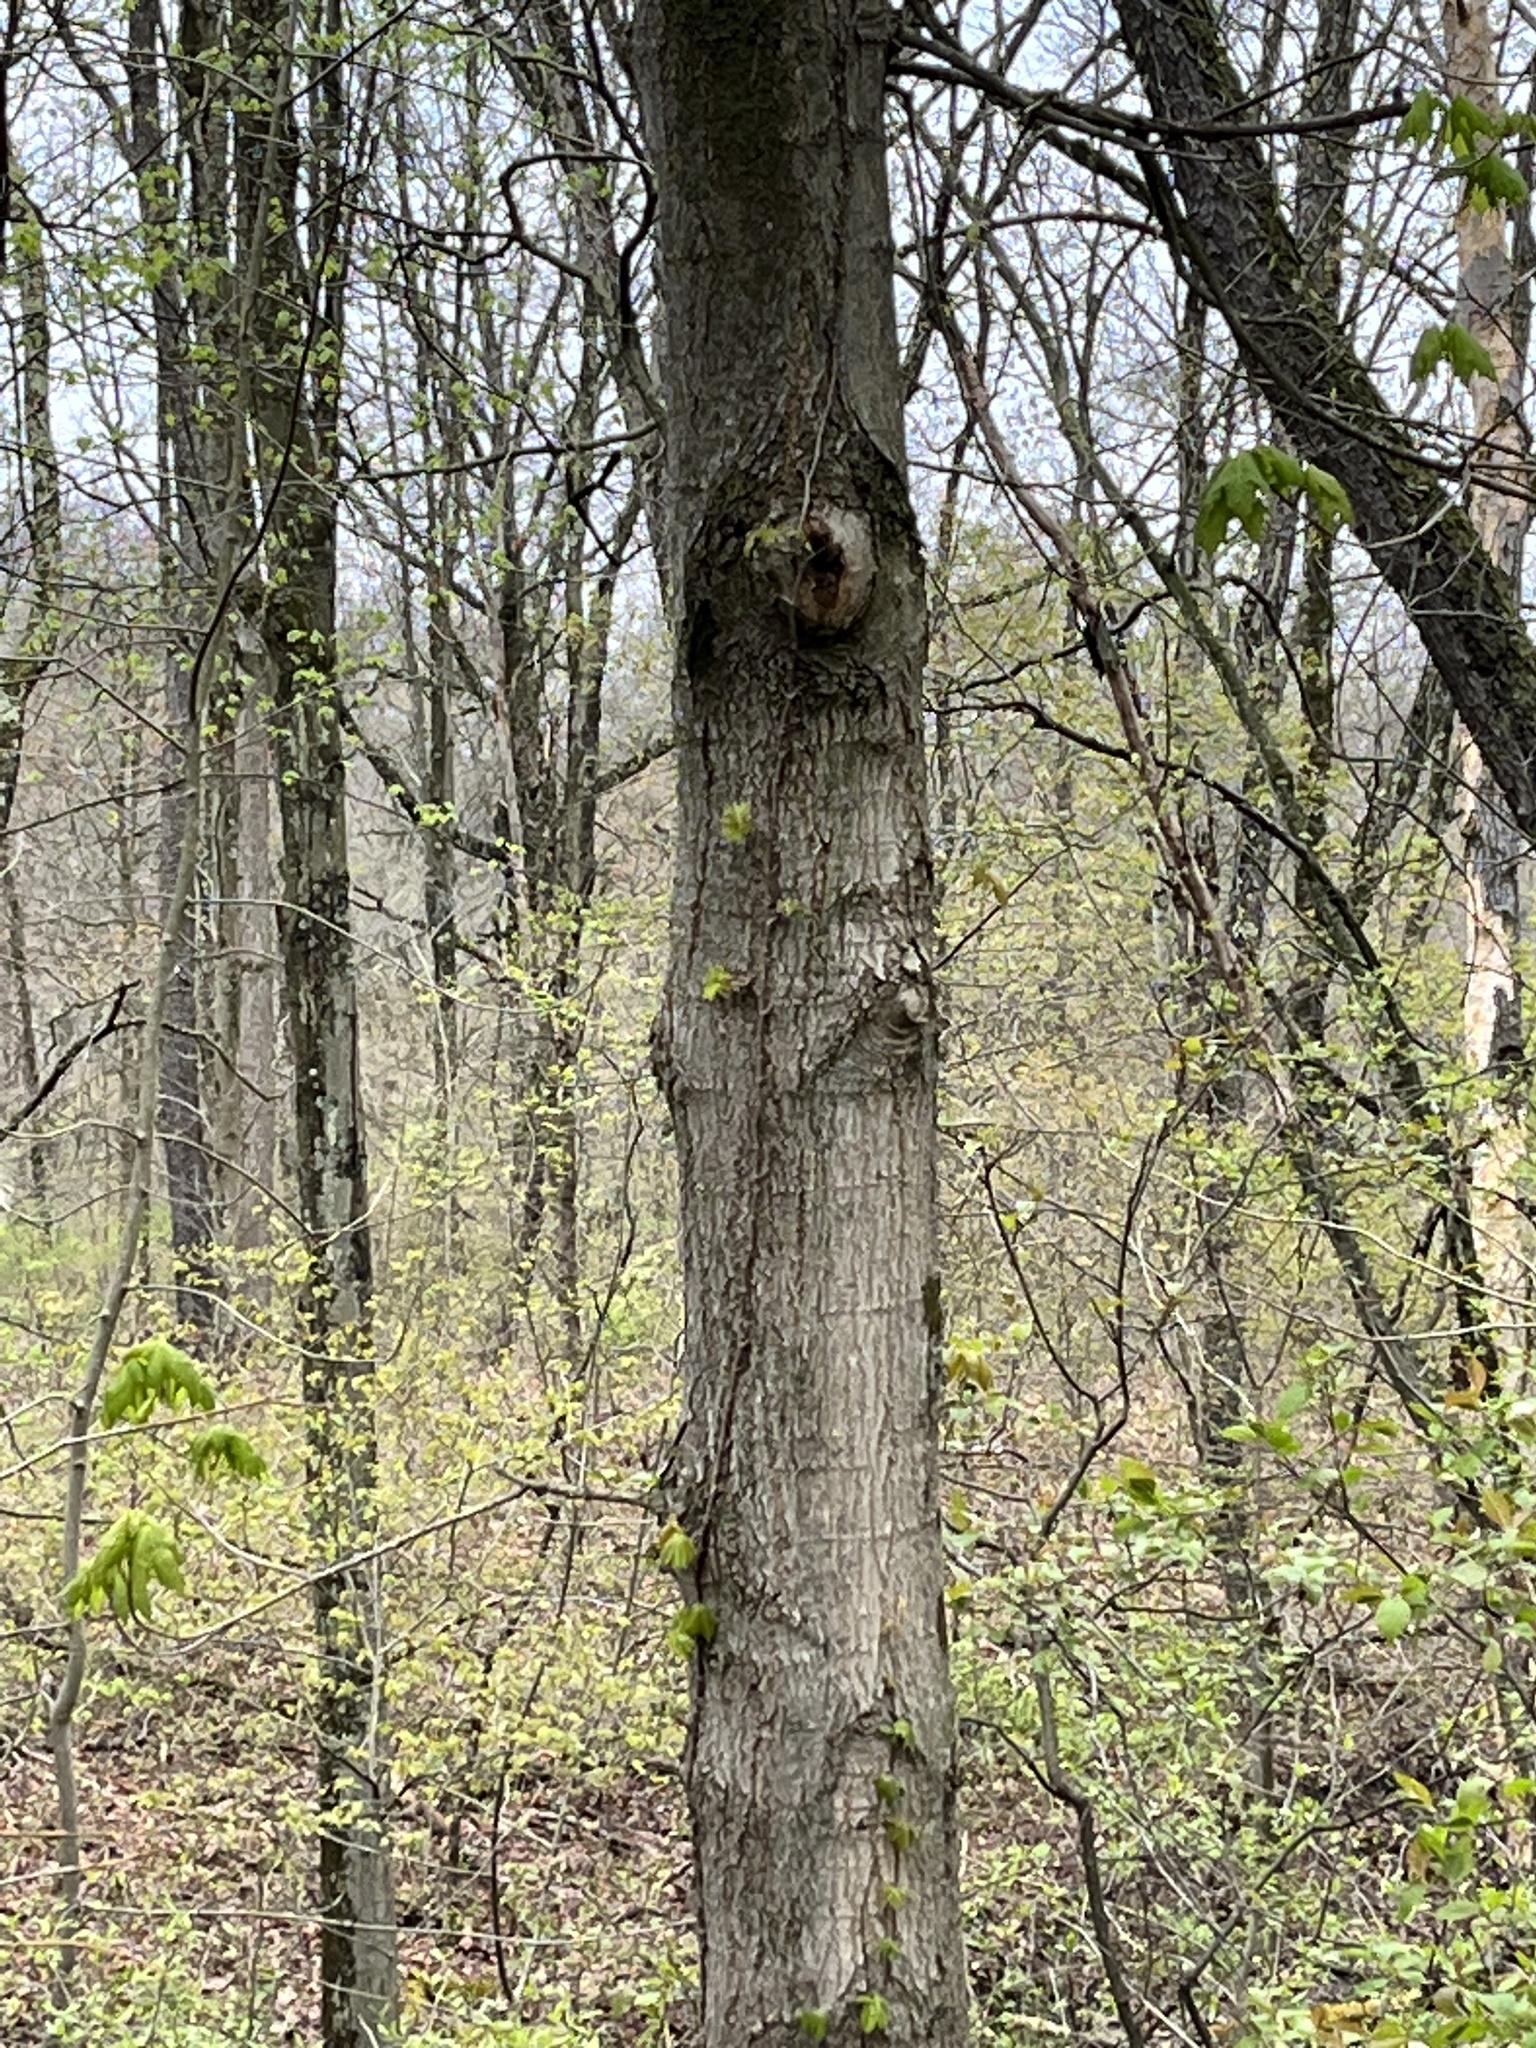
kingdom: Plantae
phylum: Tracheophyta
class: Magnoliopsida
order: Sapindales
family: Sapindaceae
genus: Acer
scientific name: Acer saccharum
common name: Sugar maple
